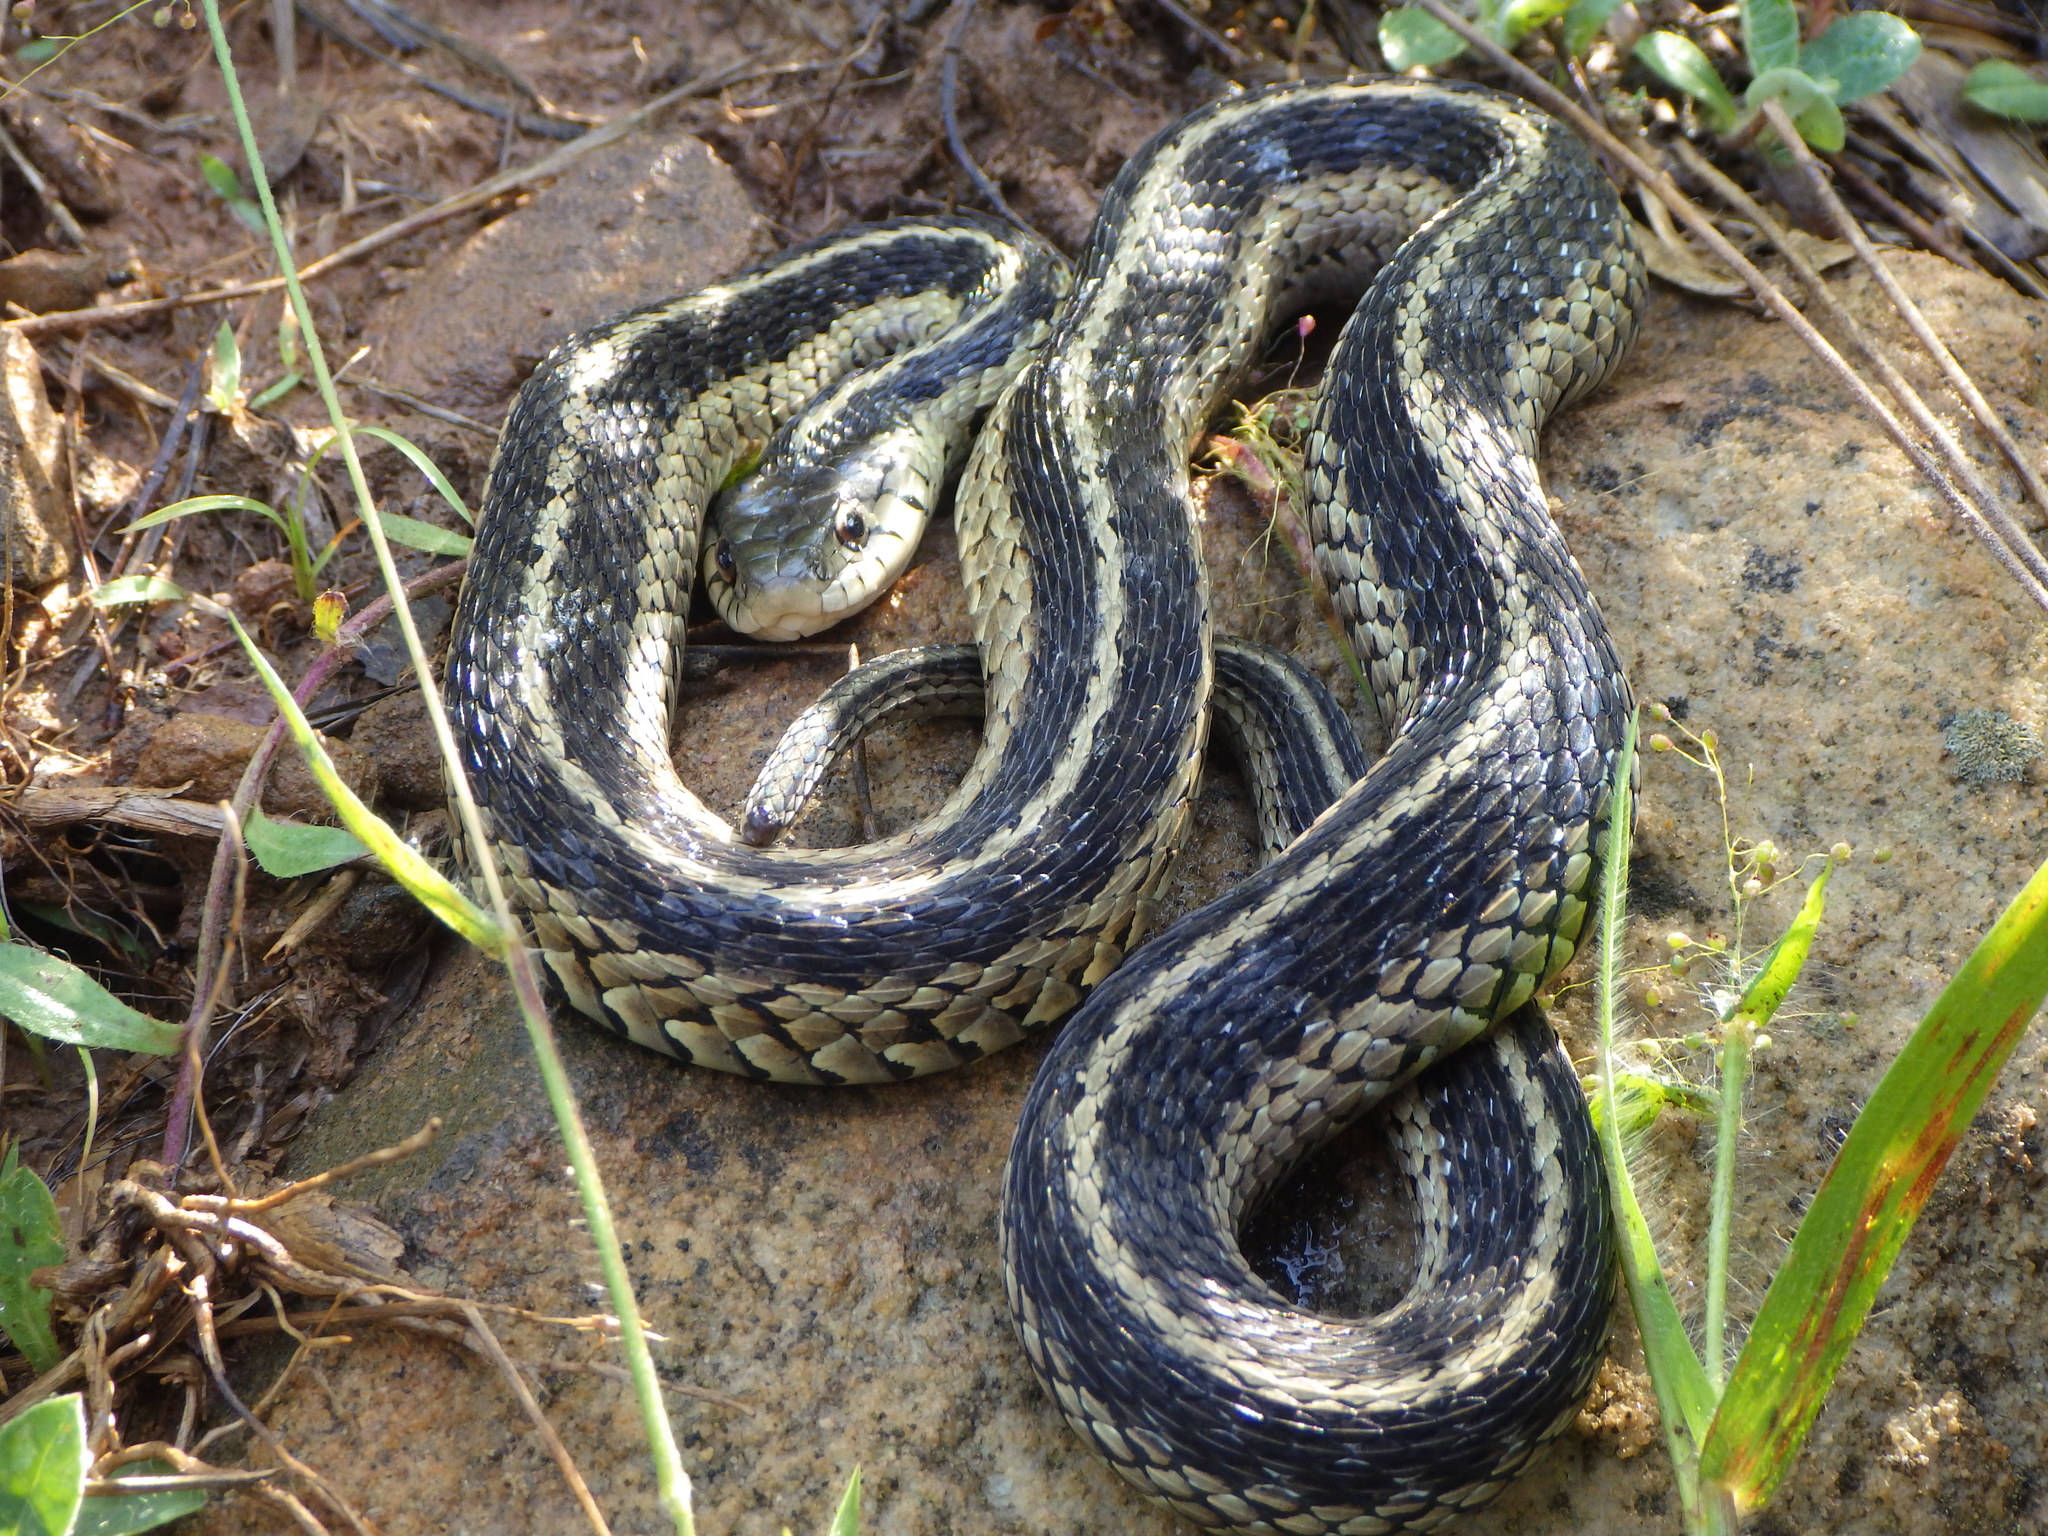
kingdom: Animalia
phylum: Chordata
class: Squamata
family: Colubridae
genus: Thamnophis
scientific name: Thamnophis sirtalis
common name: Common garter snake
